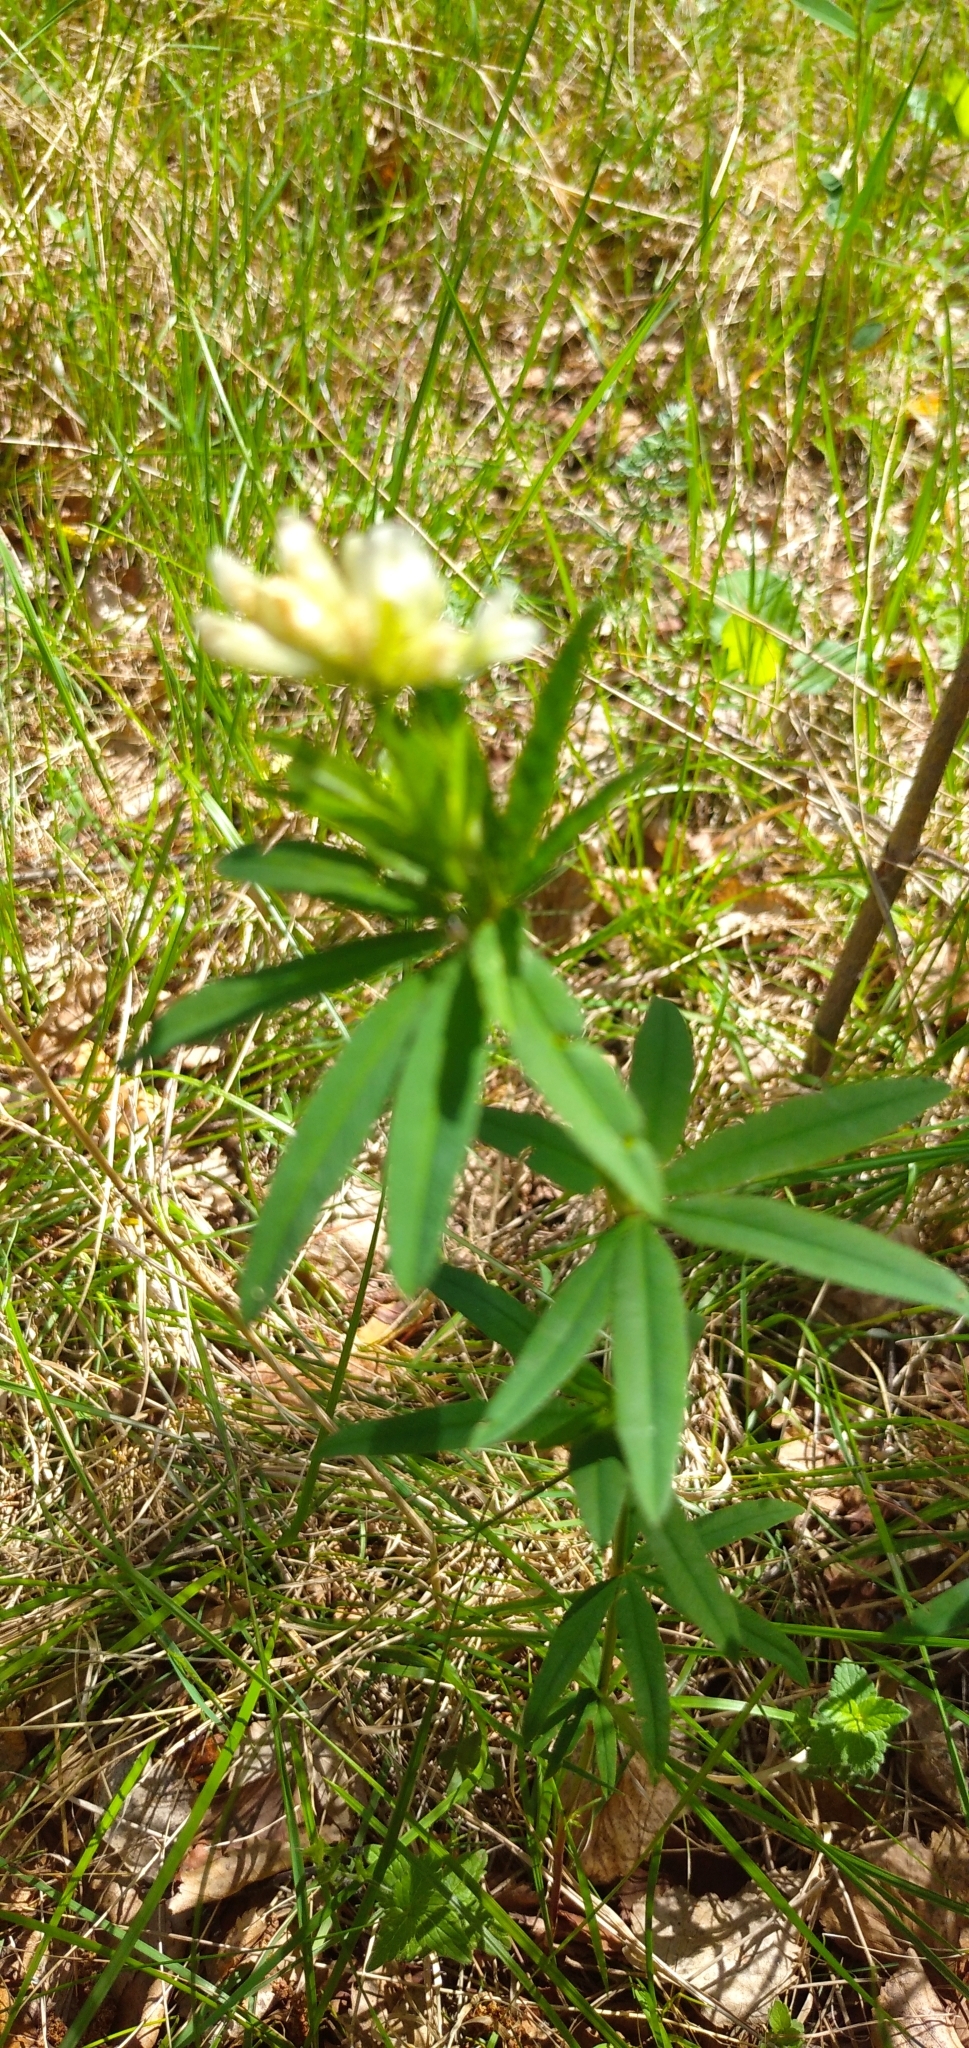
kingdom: Plantae
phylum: Tracheophyta
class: Magnoliopsida
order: Fabales
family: Fabaceae
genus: Trifolium
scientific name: Trifolium lupinaster
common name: Lupine clover
